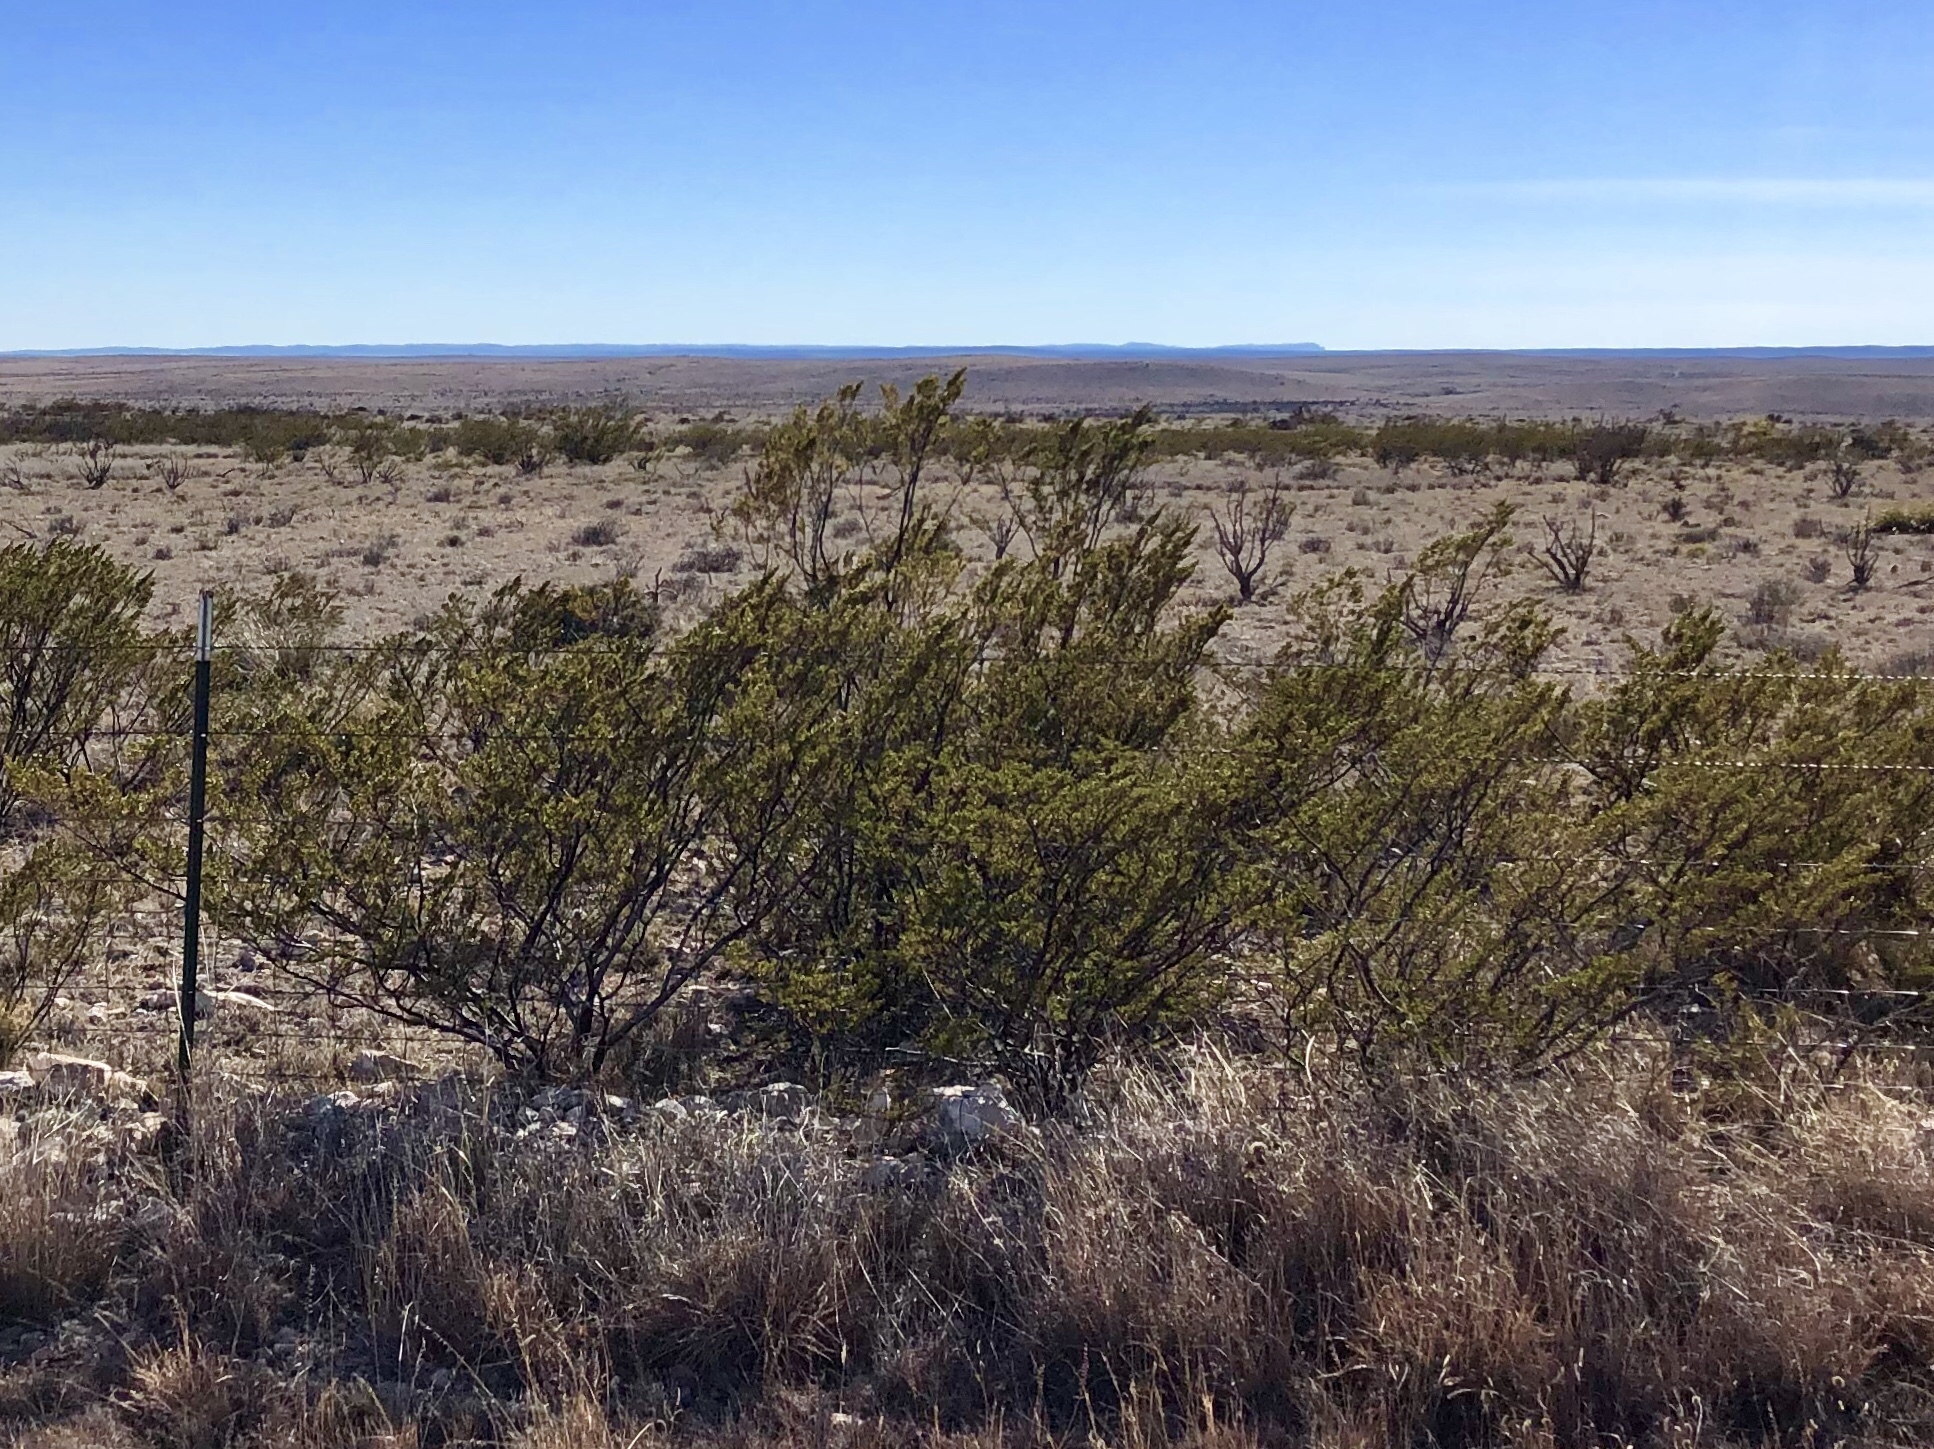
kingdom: Plantae
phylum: Tracheophyta
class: Magnoliopsida
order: Zygophyllales
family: Zygophyllaceae
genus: Larrea
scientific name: Larrea tridentata
